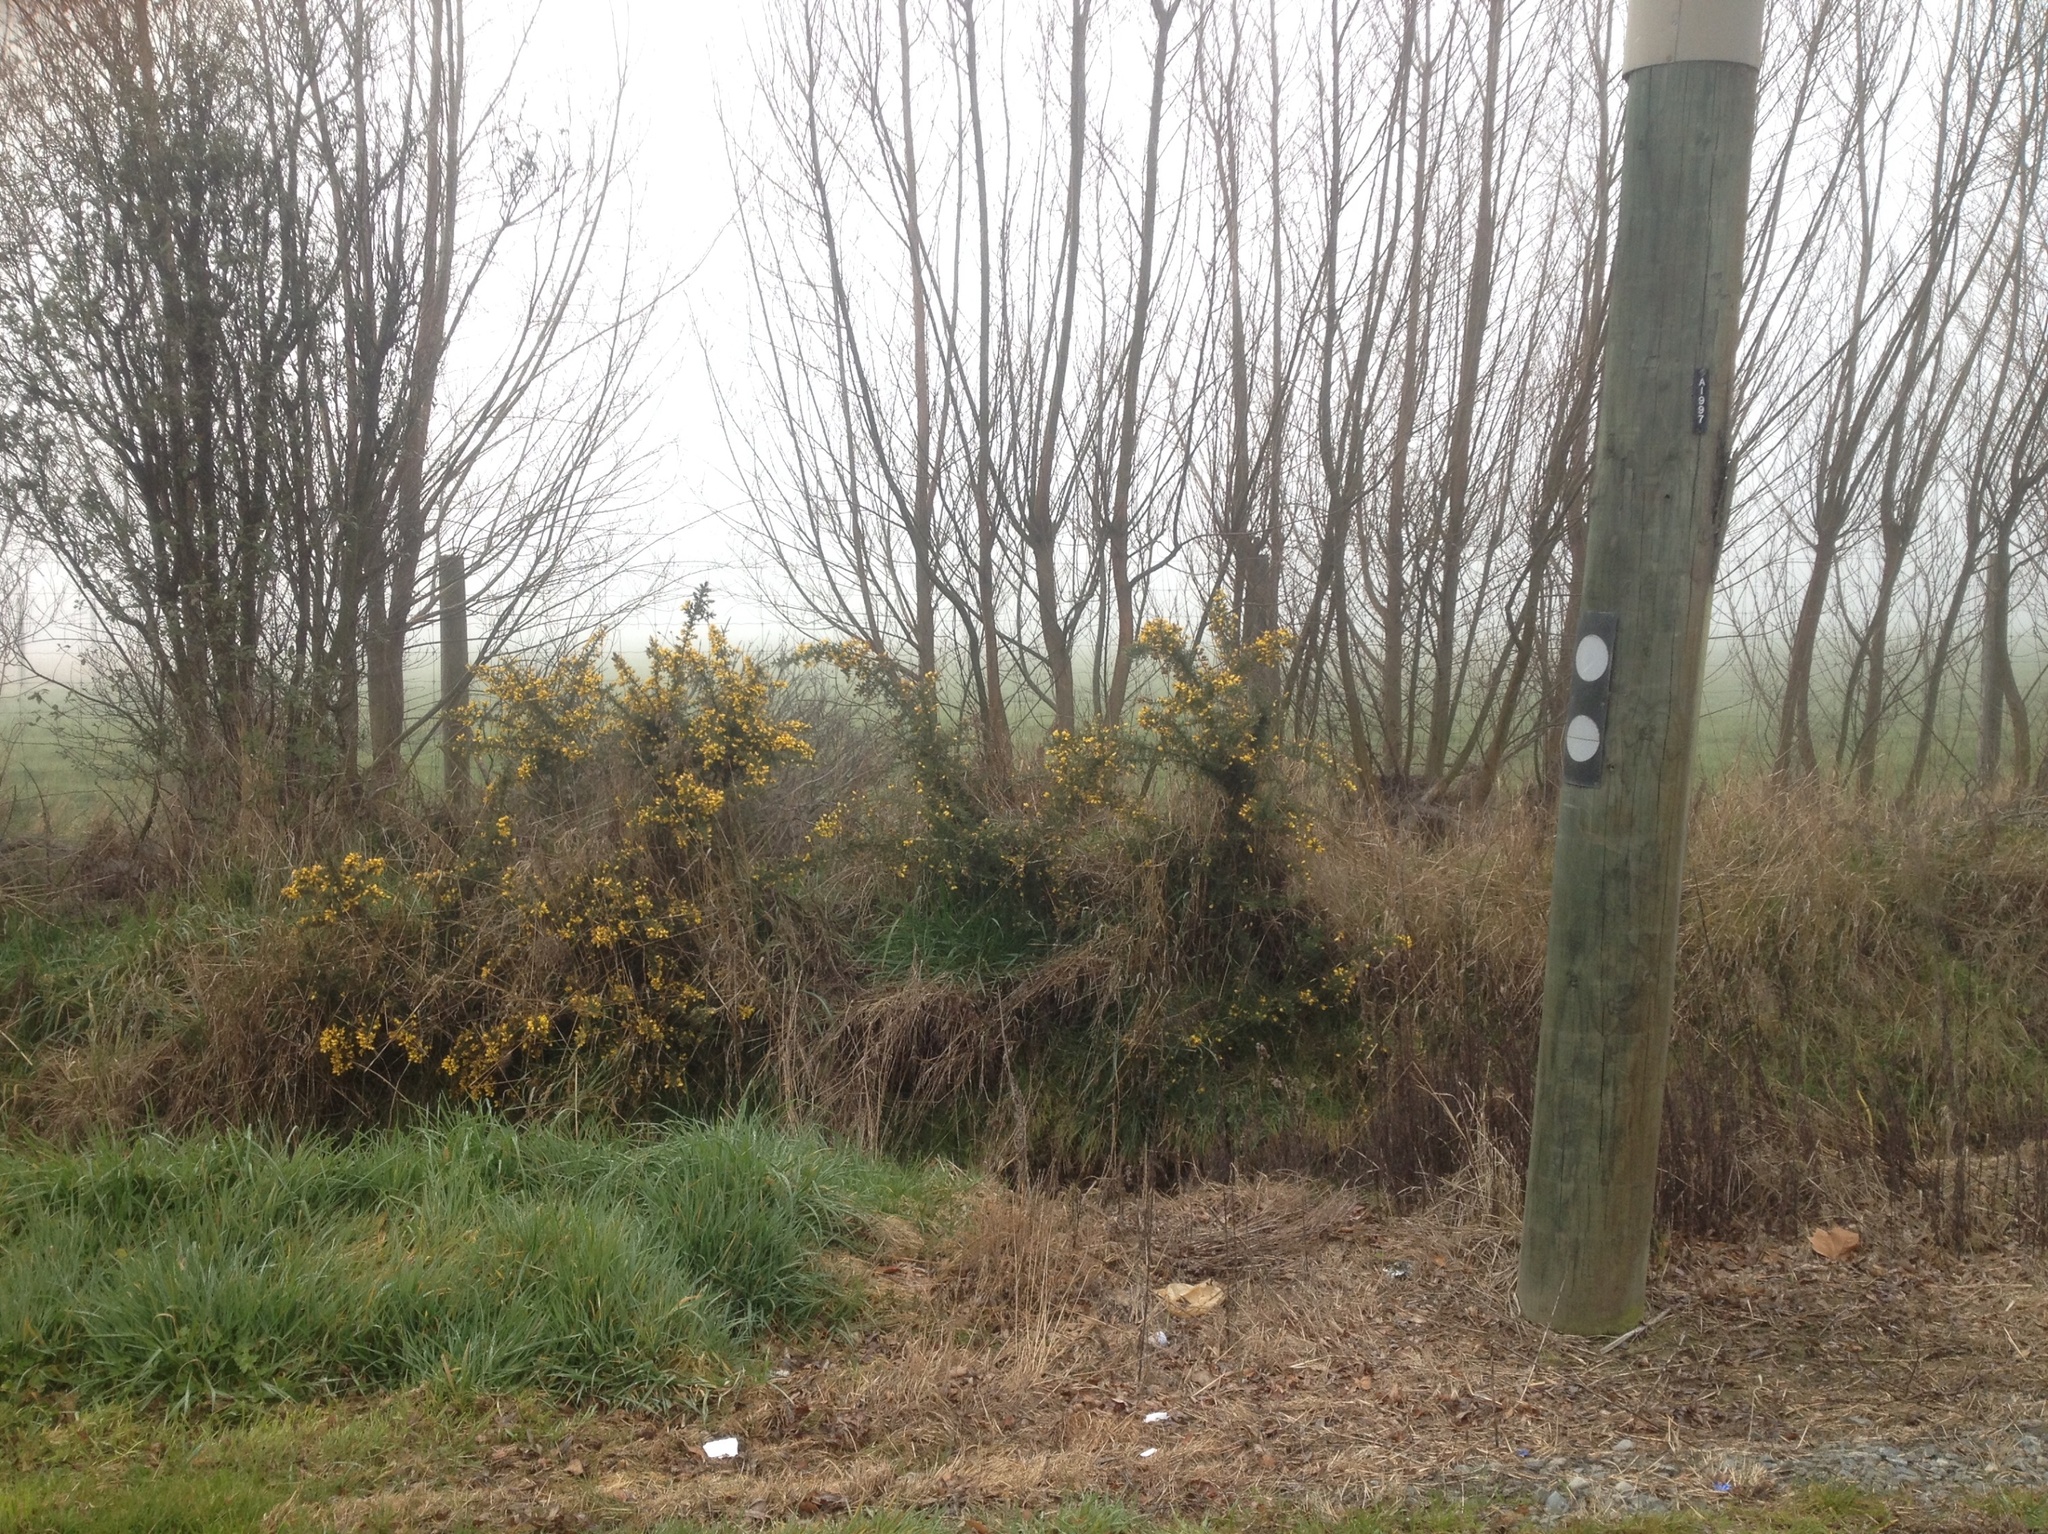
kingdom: Plantae
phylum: Tracheophyta
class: Magnoliopsida
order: Fabales
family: Fabaceae
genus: Ulex
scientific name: Ulex europaeus
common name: Common gorse
